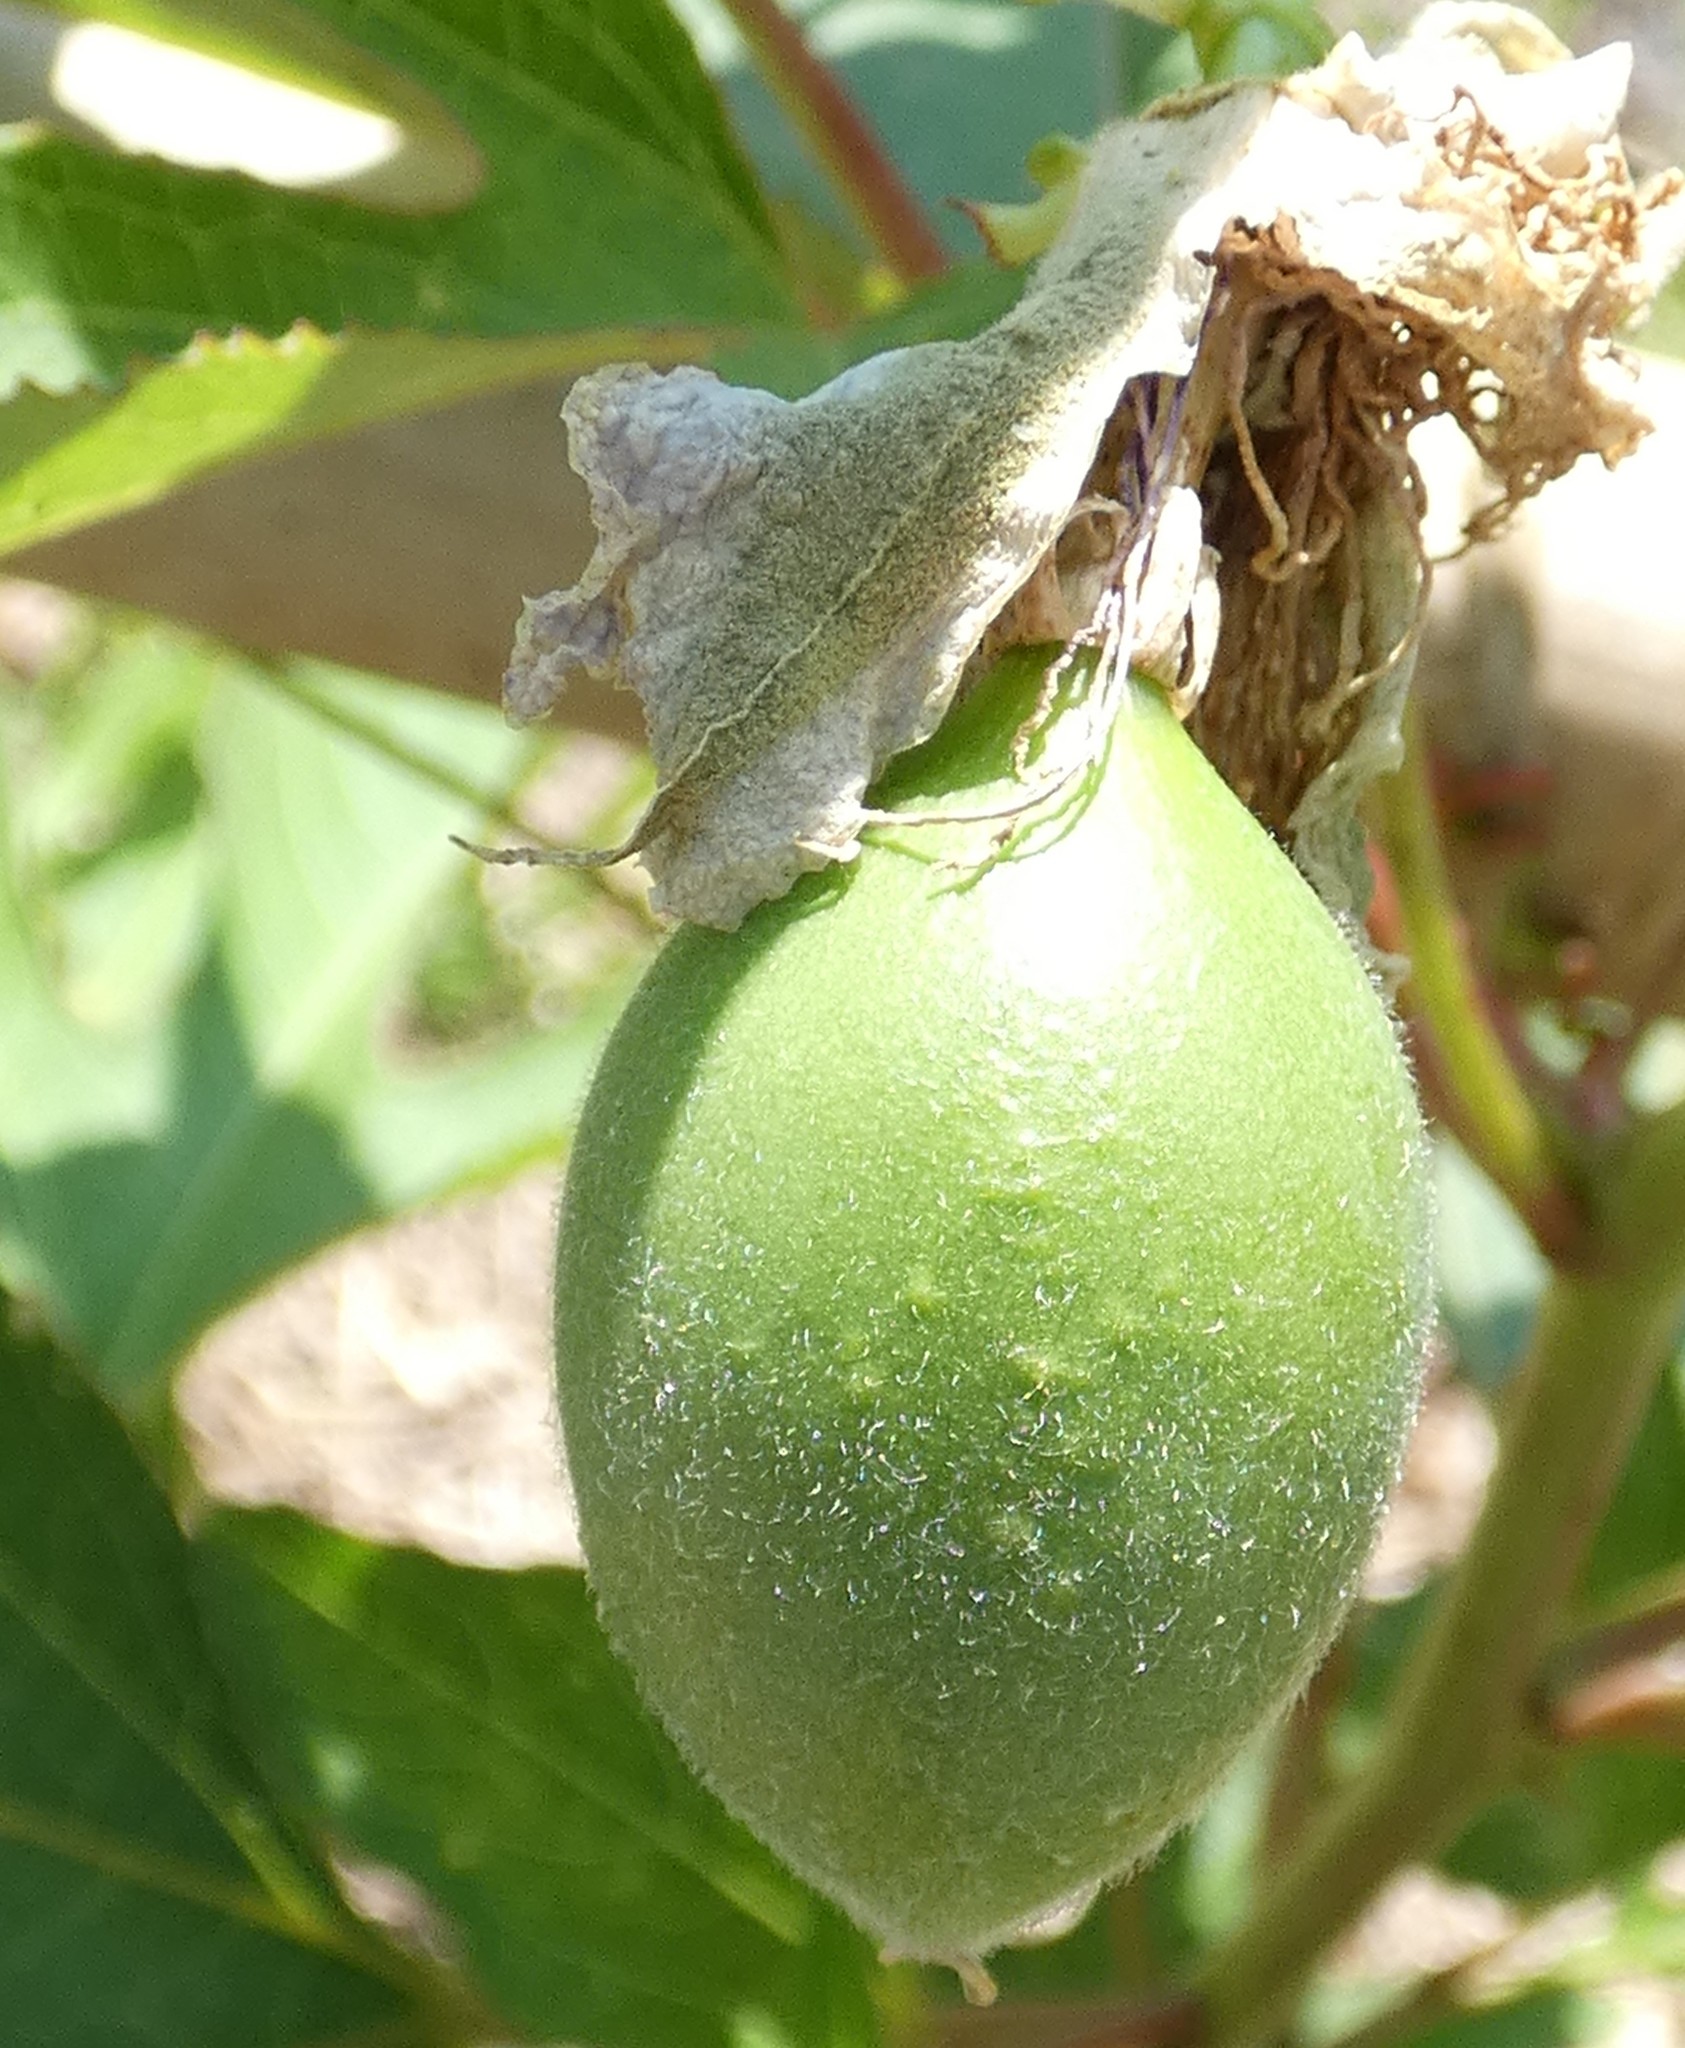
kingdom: Plantae
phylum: Tracheophyta
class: Magnoliopsida
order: Malpighiales
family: Passifloraceae
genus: Passiflora
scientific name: Passiflora incarnata
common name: Apricot-vine
